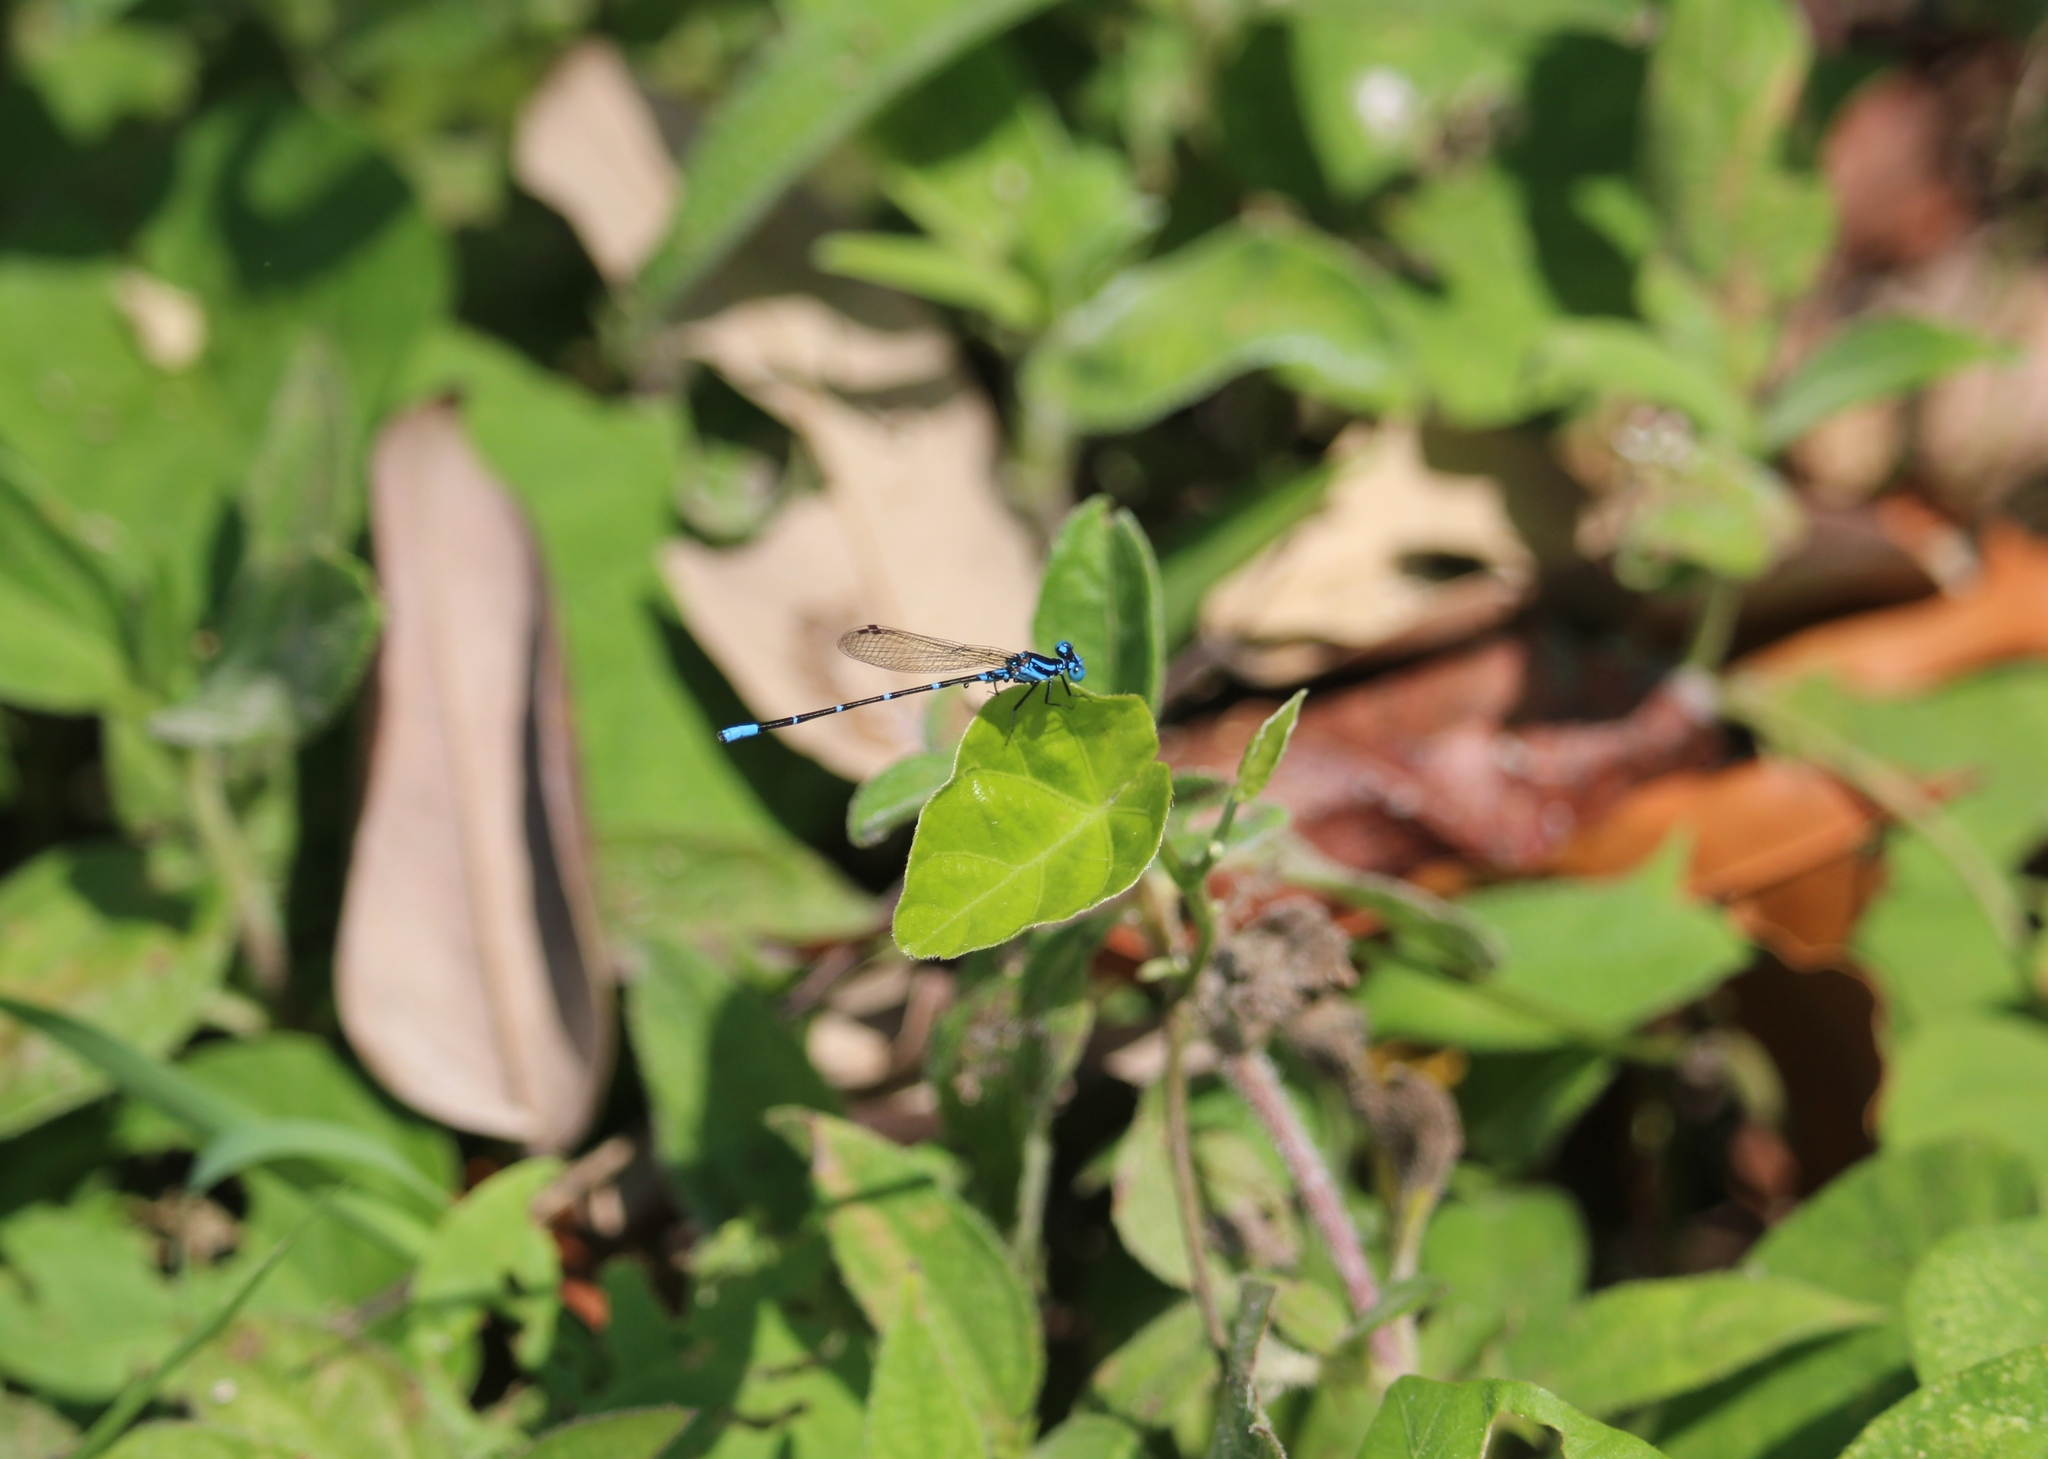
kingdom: Animalia
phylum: Arthropoda
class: Insecta
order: Odonata
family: Coenagrionidae
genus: Argia
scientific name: Argia gaumeri
